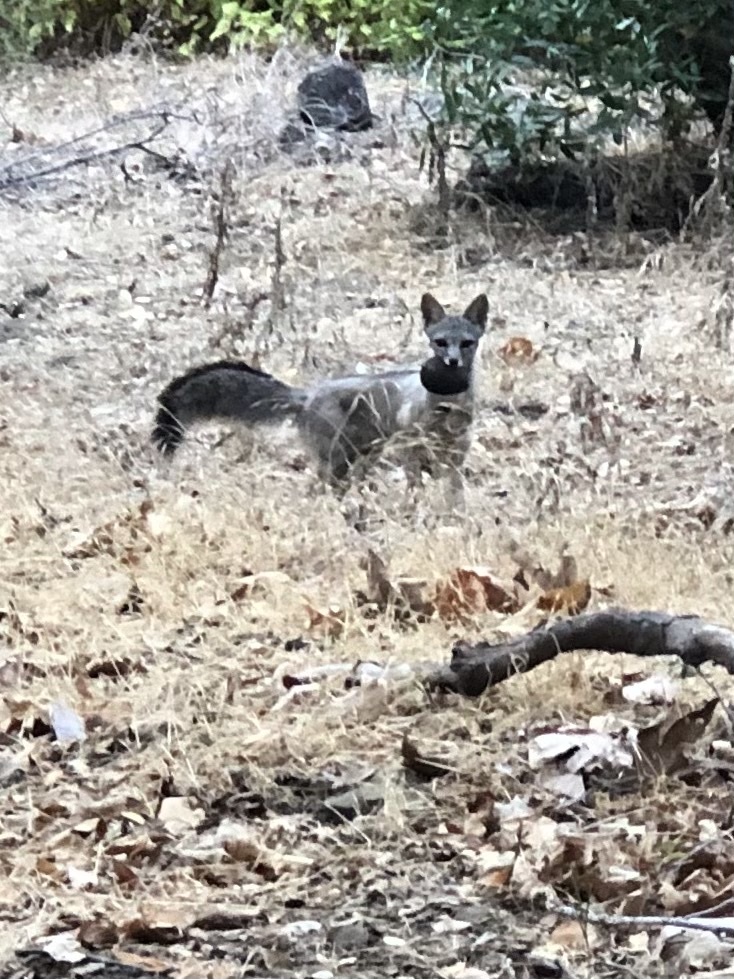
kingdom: Animalia
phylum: Chordata
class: Mammalia
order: Carnivora
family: Canidae
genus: Urocyon
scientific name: Urocyon cinereoargenteus
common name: Gray fox
